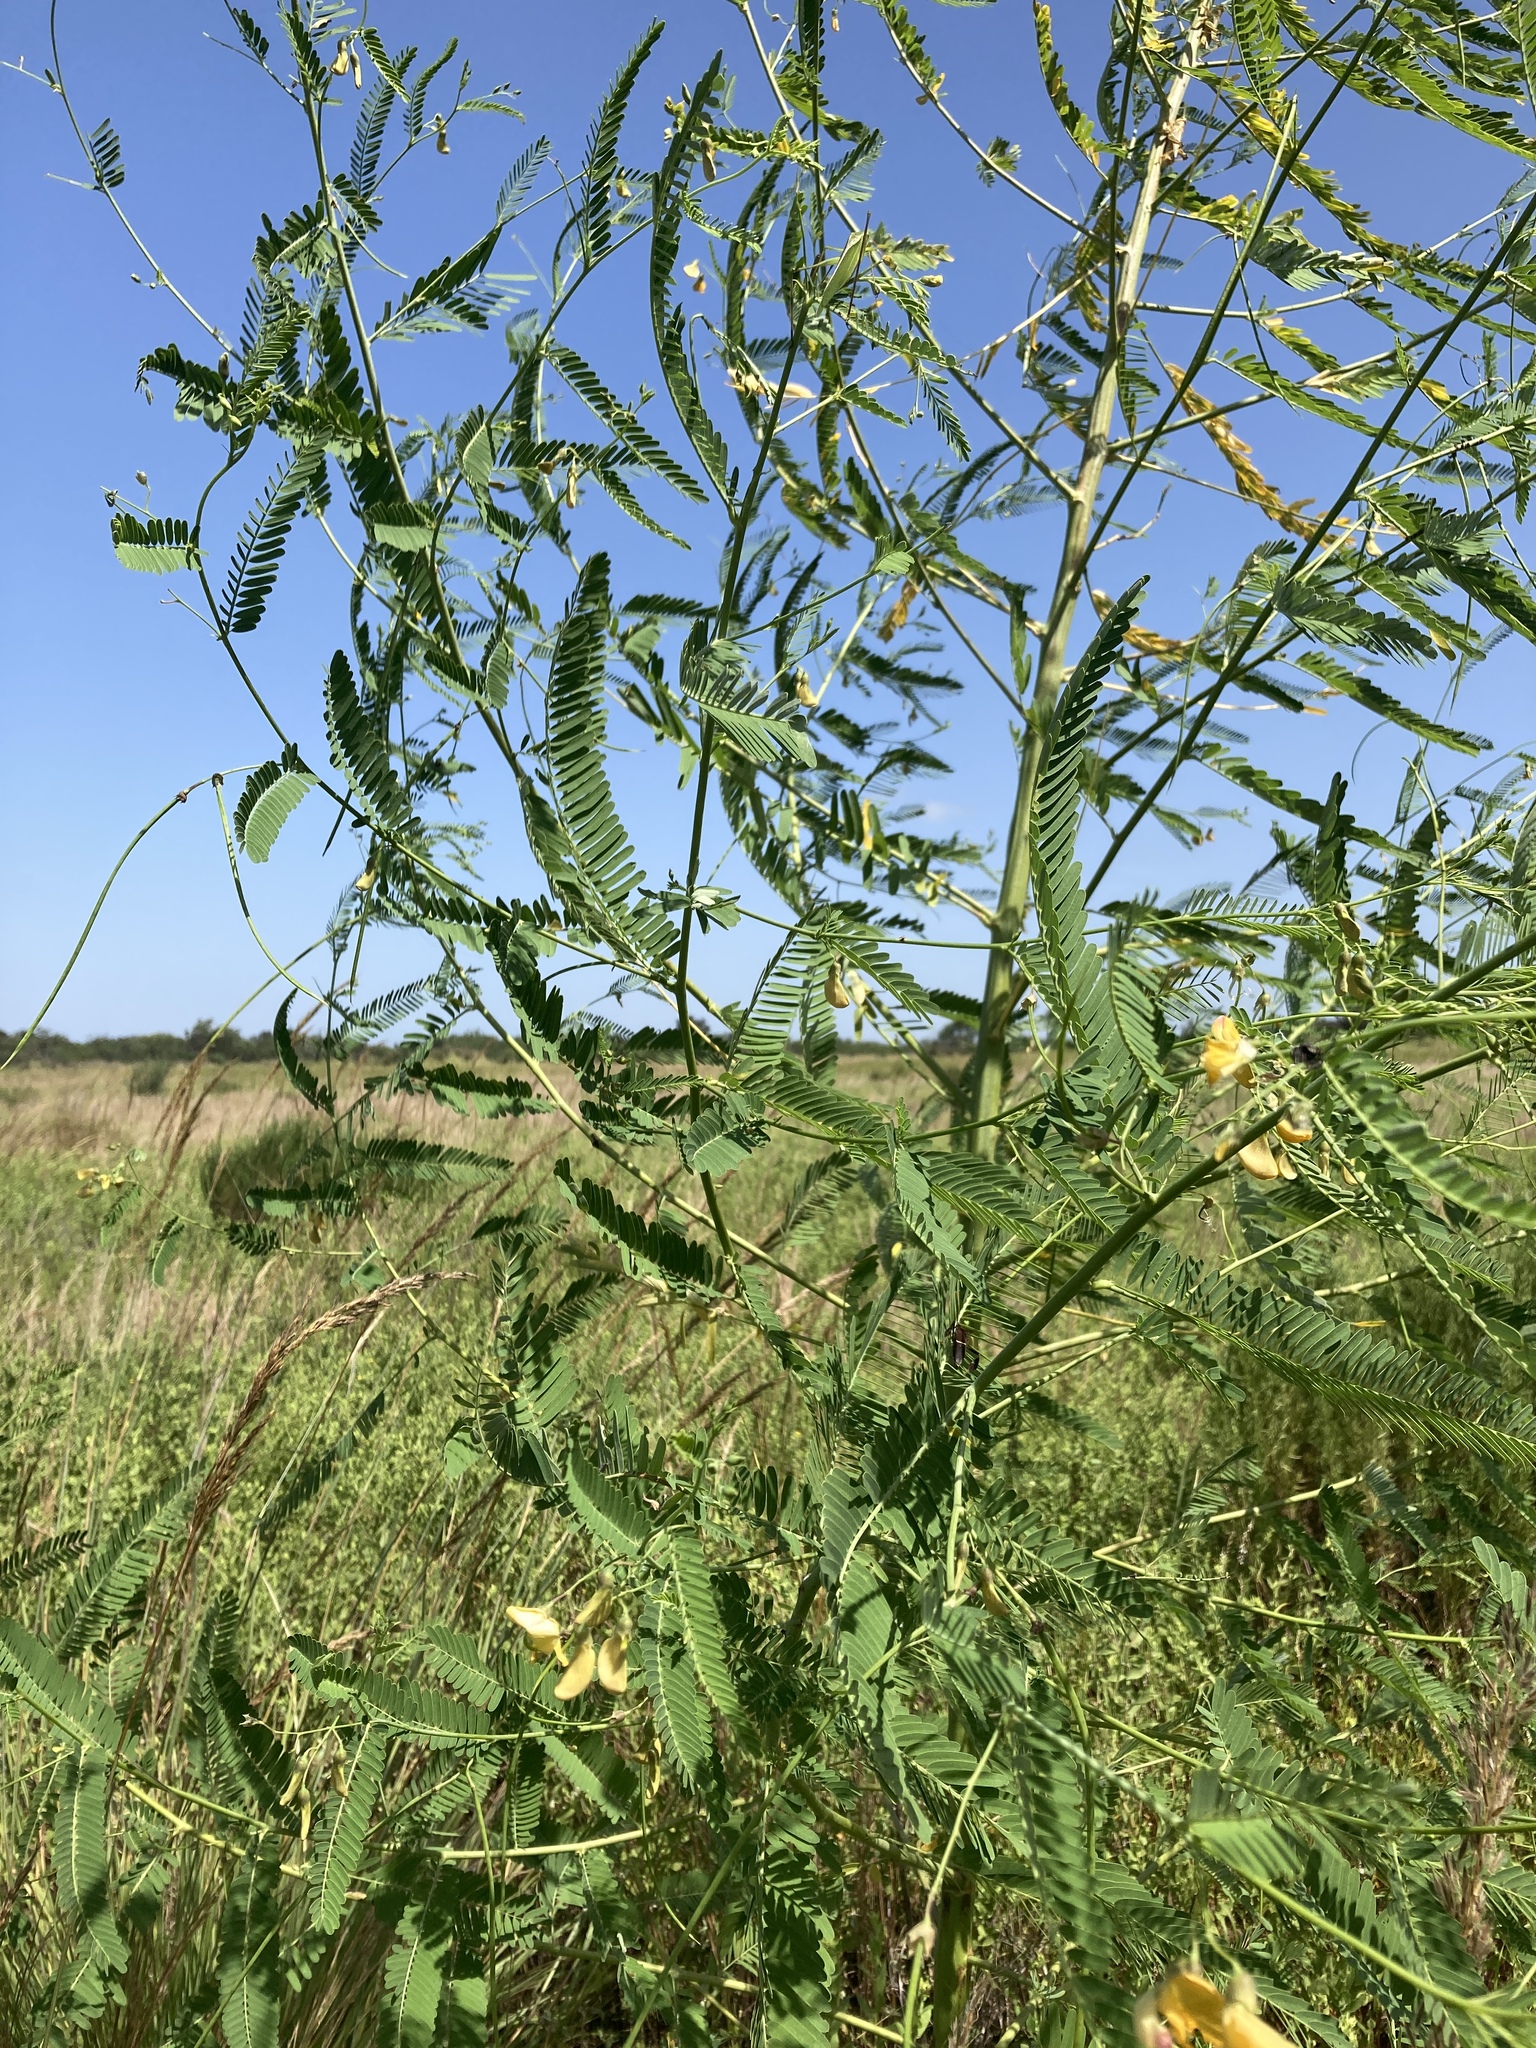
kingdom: Plantae
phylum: Tracheophyta
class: Magnoliopsida
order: Fabales
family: Fabaceae
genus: Sesbania
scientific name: Sesbania herbacea
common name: Bigpod sesbania
